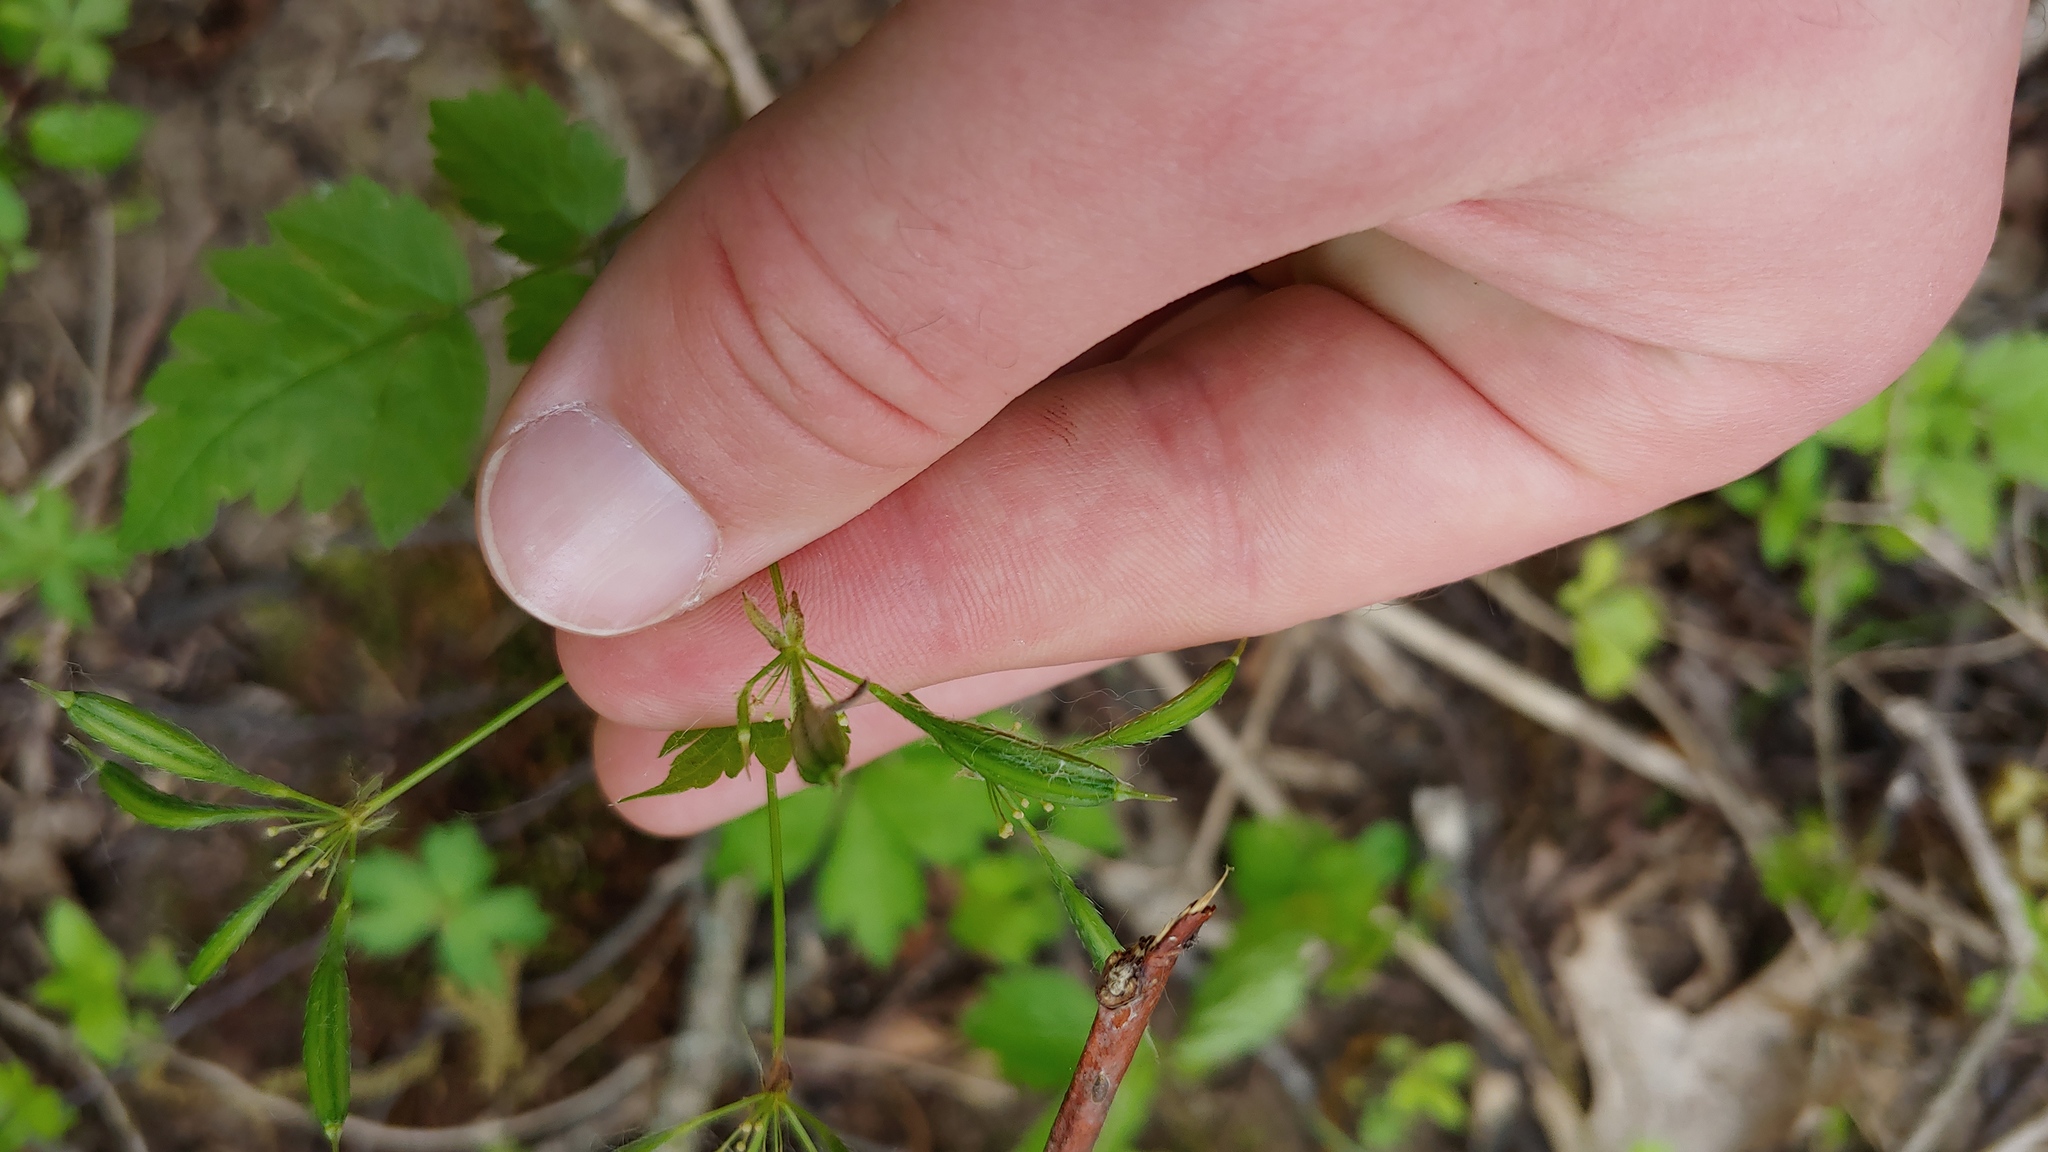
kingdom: Plantae
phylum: Tracheophyta
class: Magnoliopsida
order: Apiales
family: Apiaceae
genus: Osmorhiza
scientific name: Osmorhiza longistylis
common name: Smooth sweet cicely
